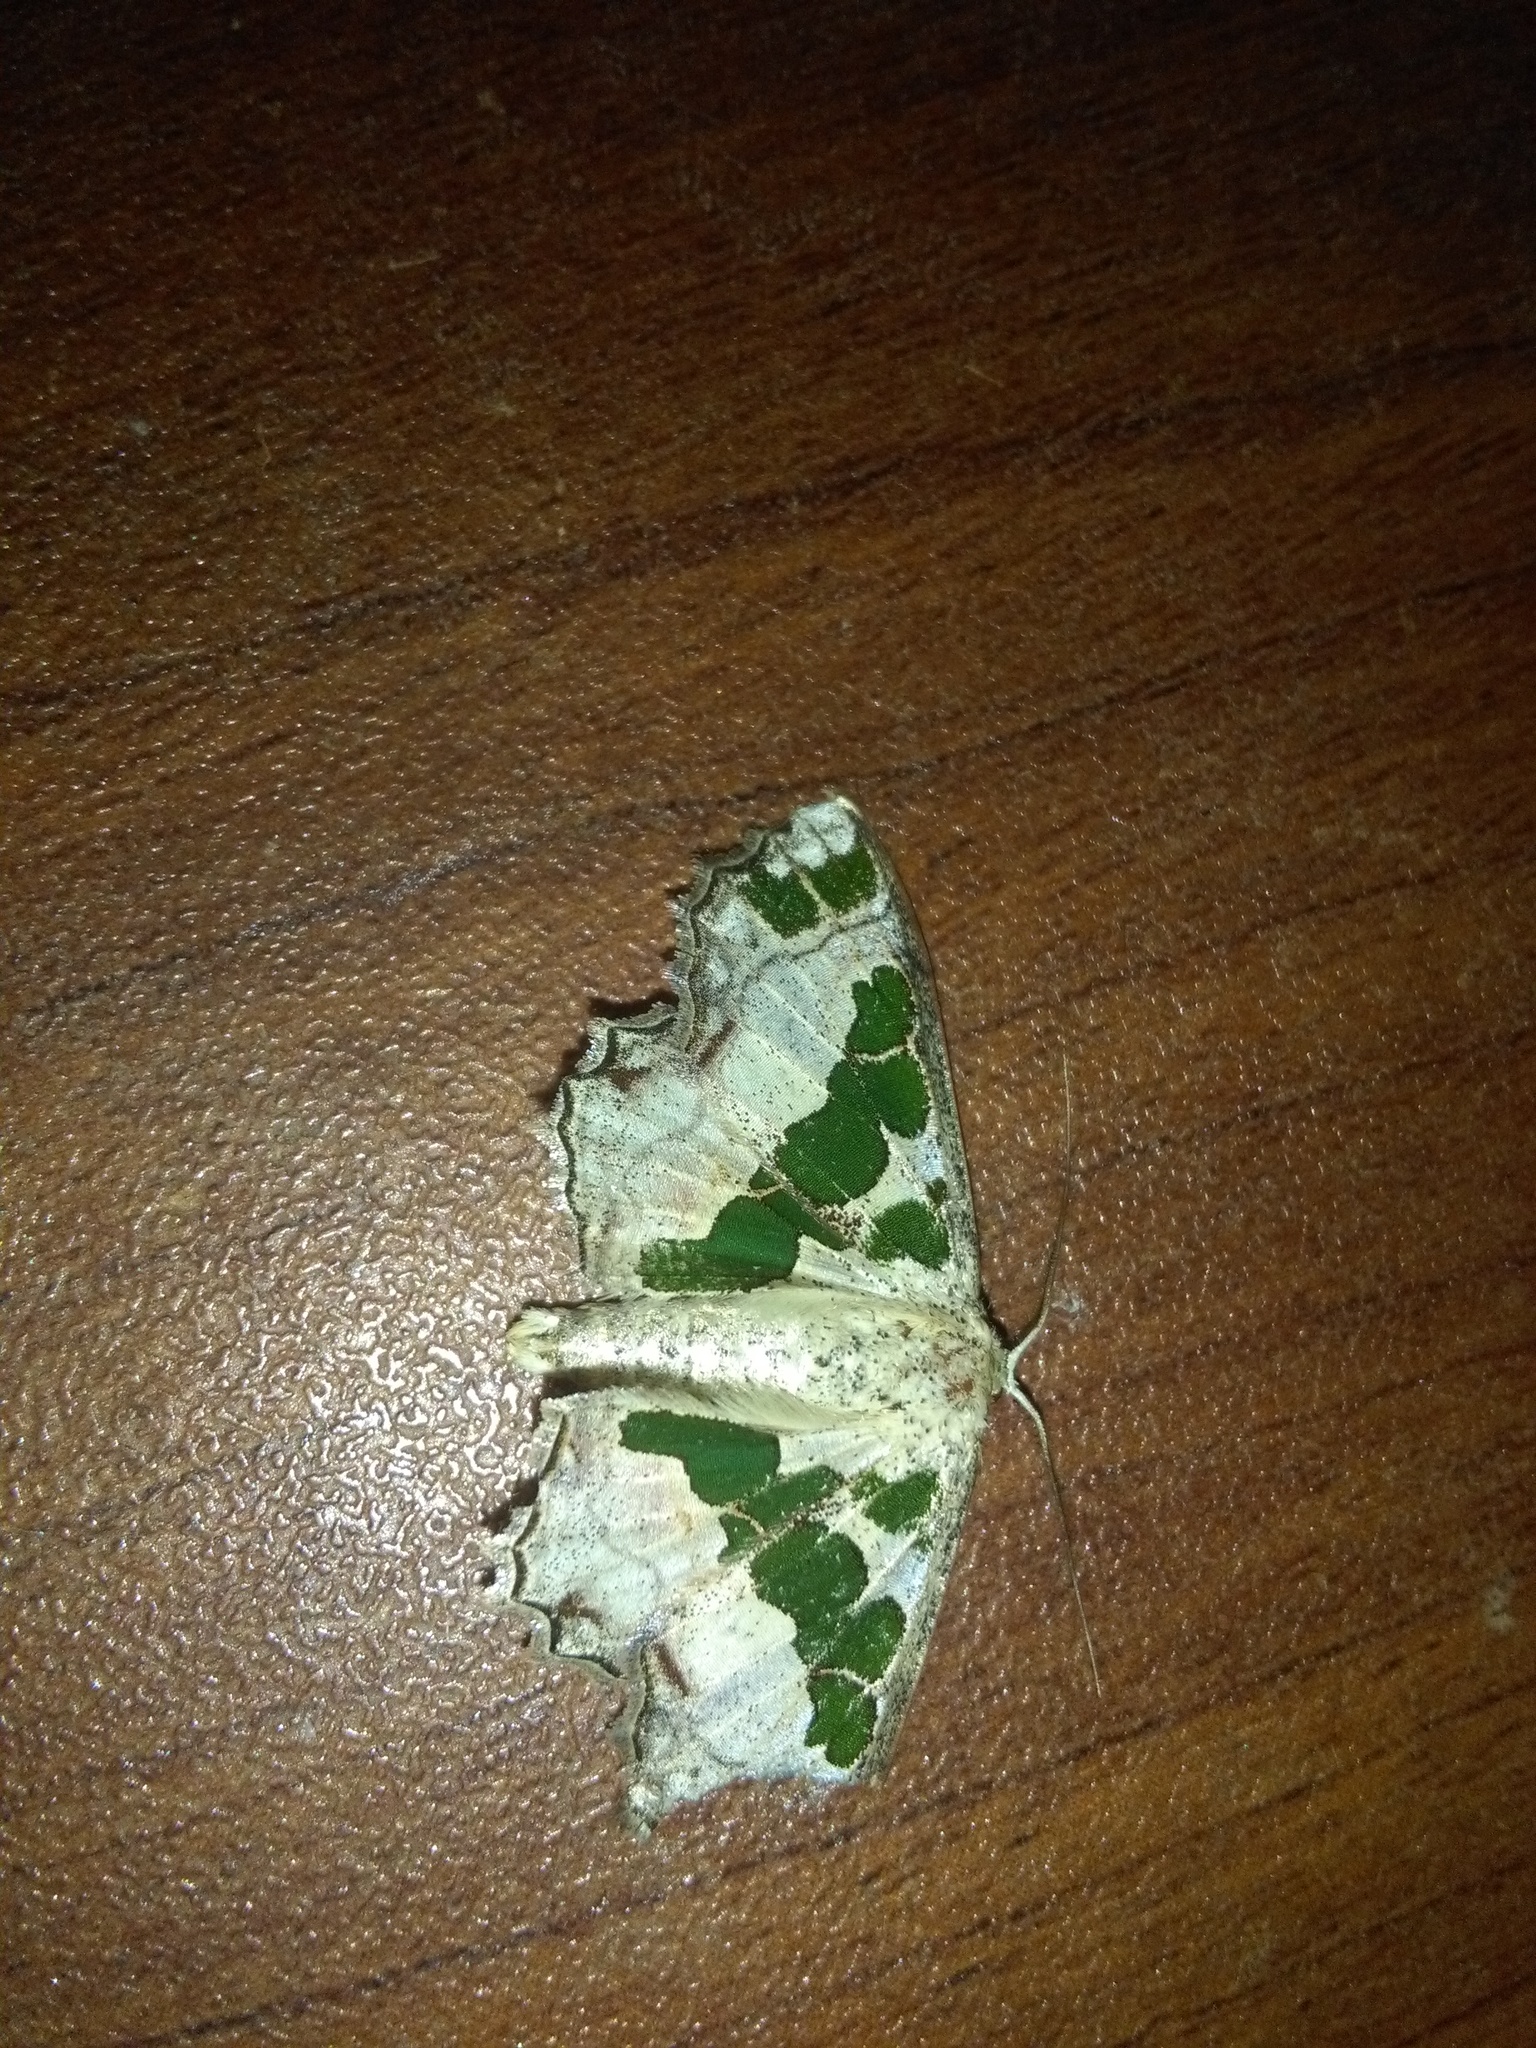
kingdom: Animalia
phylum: Arthropoda
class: Insecta
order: Lepidoptera
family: Geometridae
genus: Scopula
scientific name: Scopula divisaria
